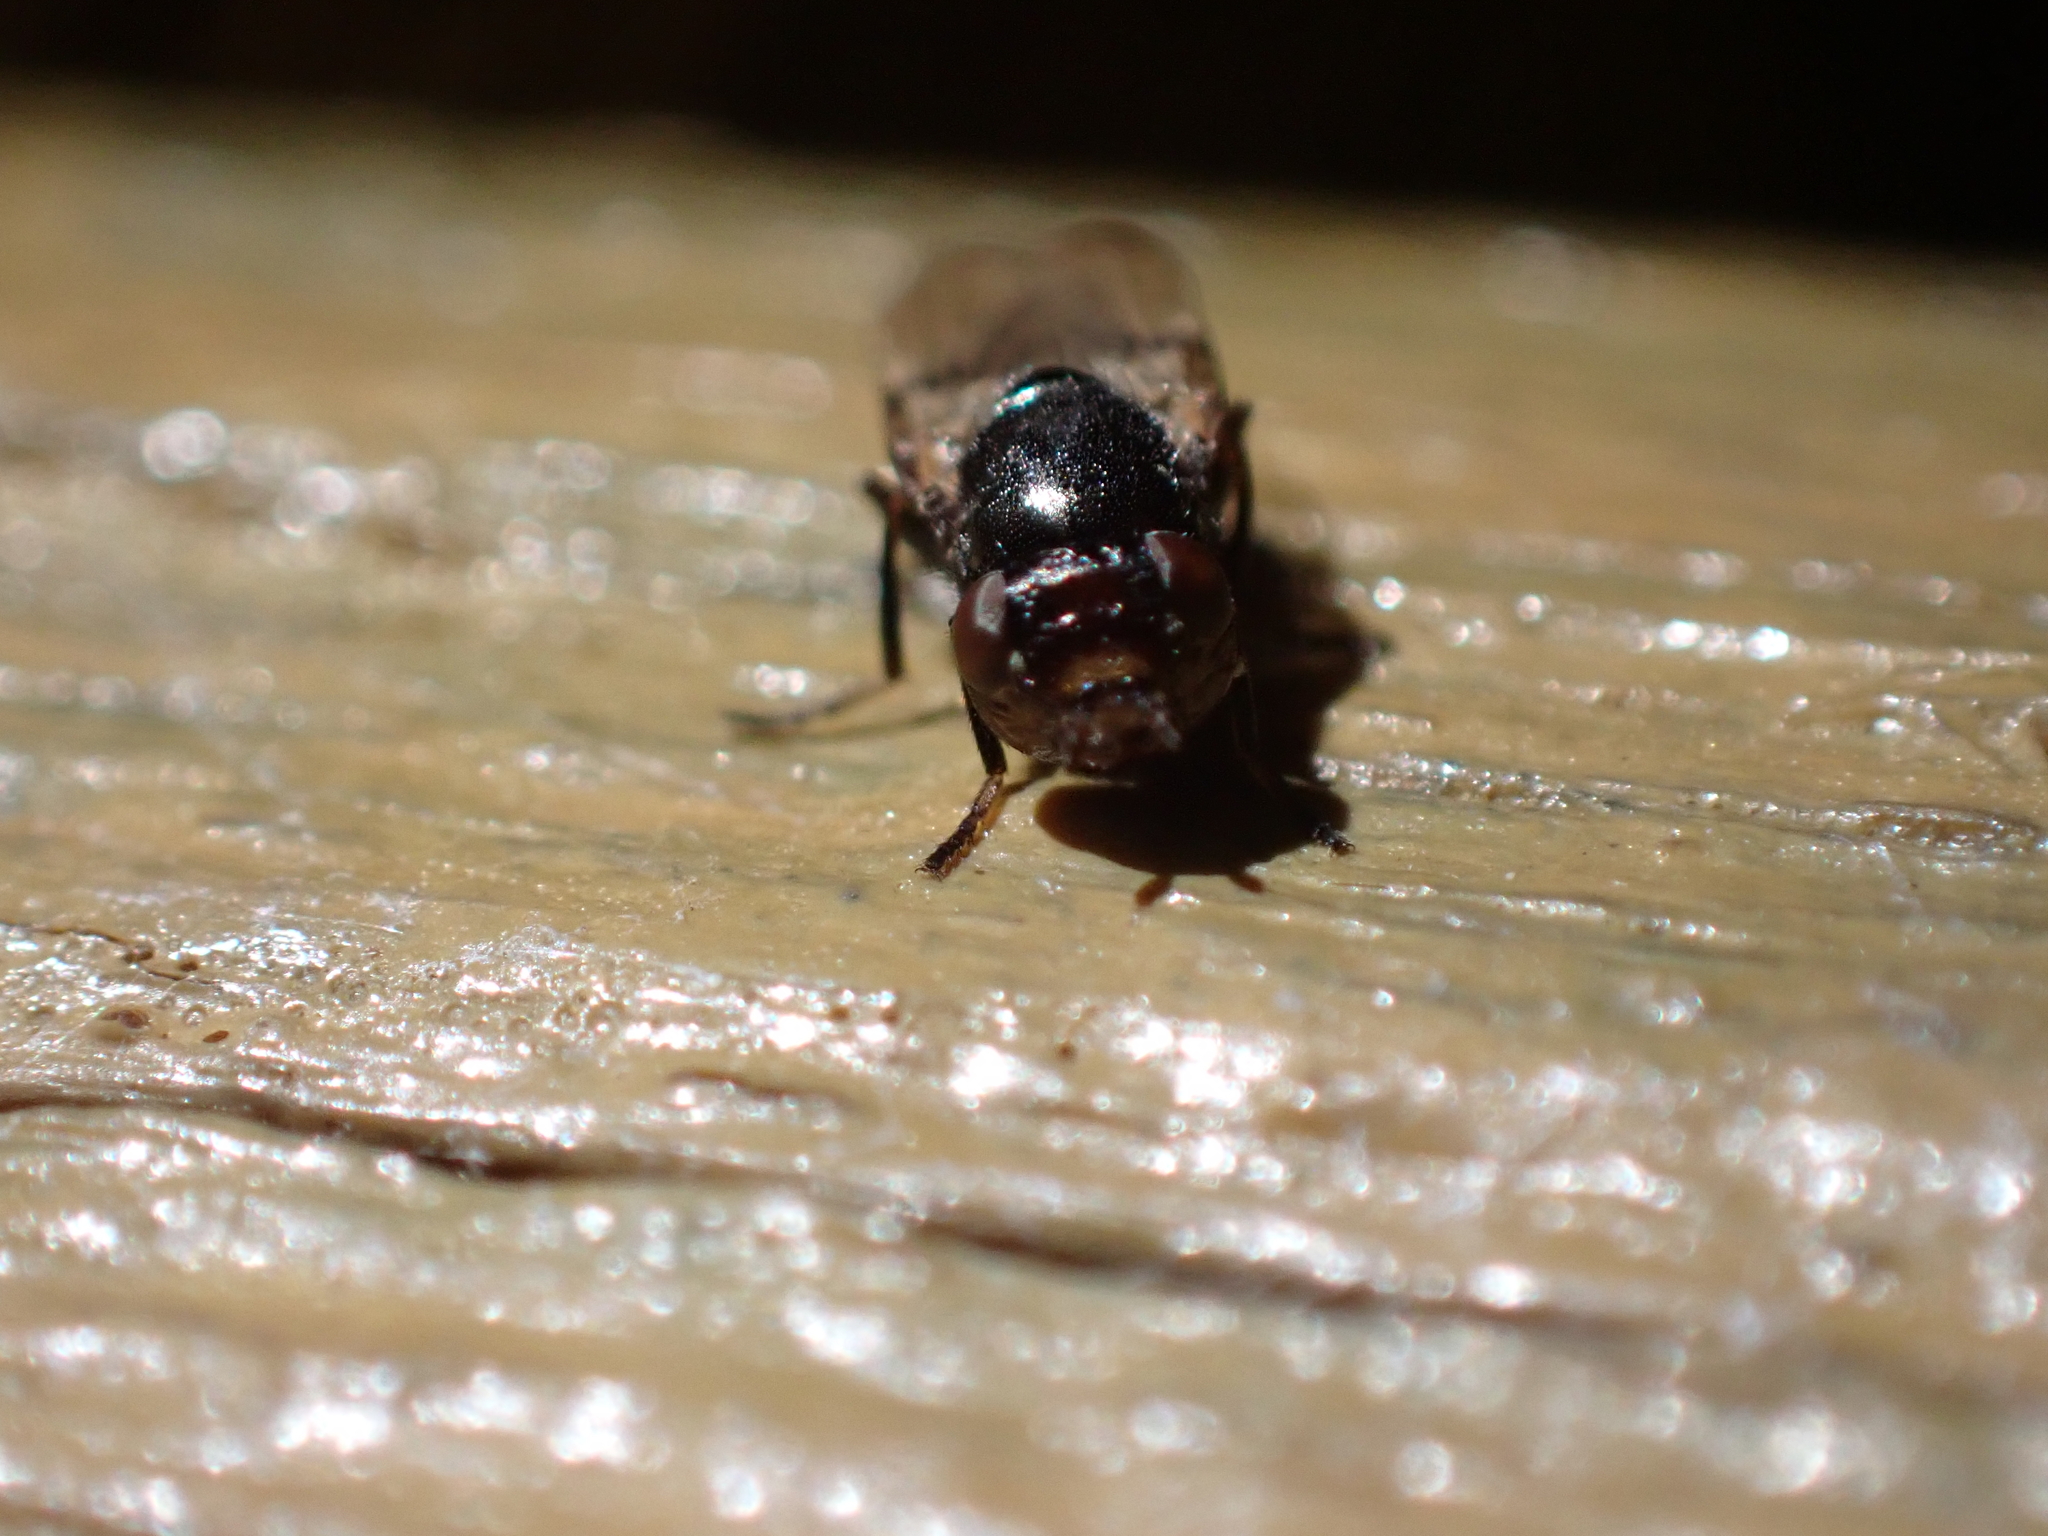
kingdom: Animalia
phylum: Arthropoda
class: Insecta
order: Diptera
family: Ulidiidae
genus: Tetanops
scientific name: Tetanops myopaeformis
